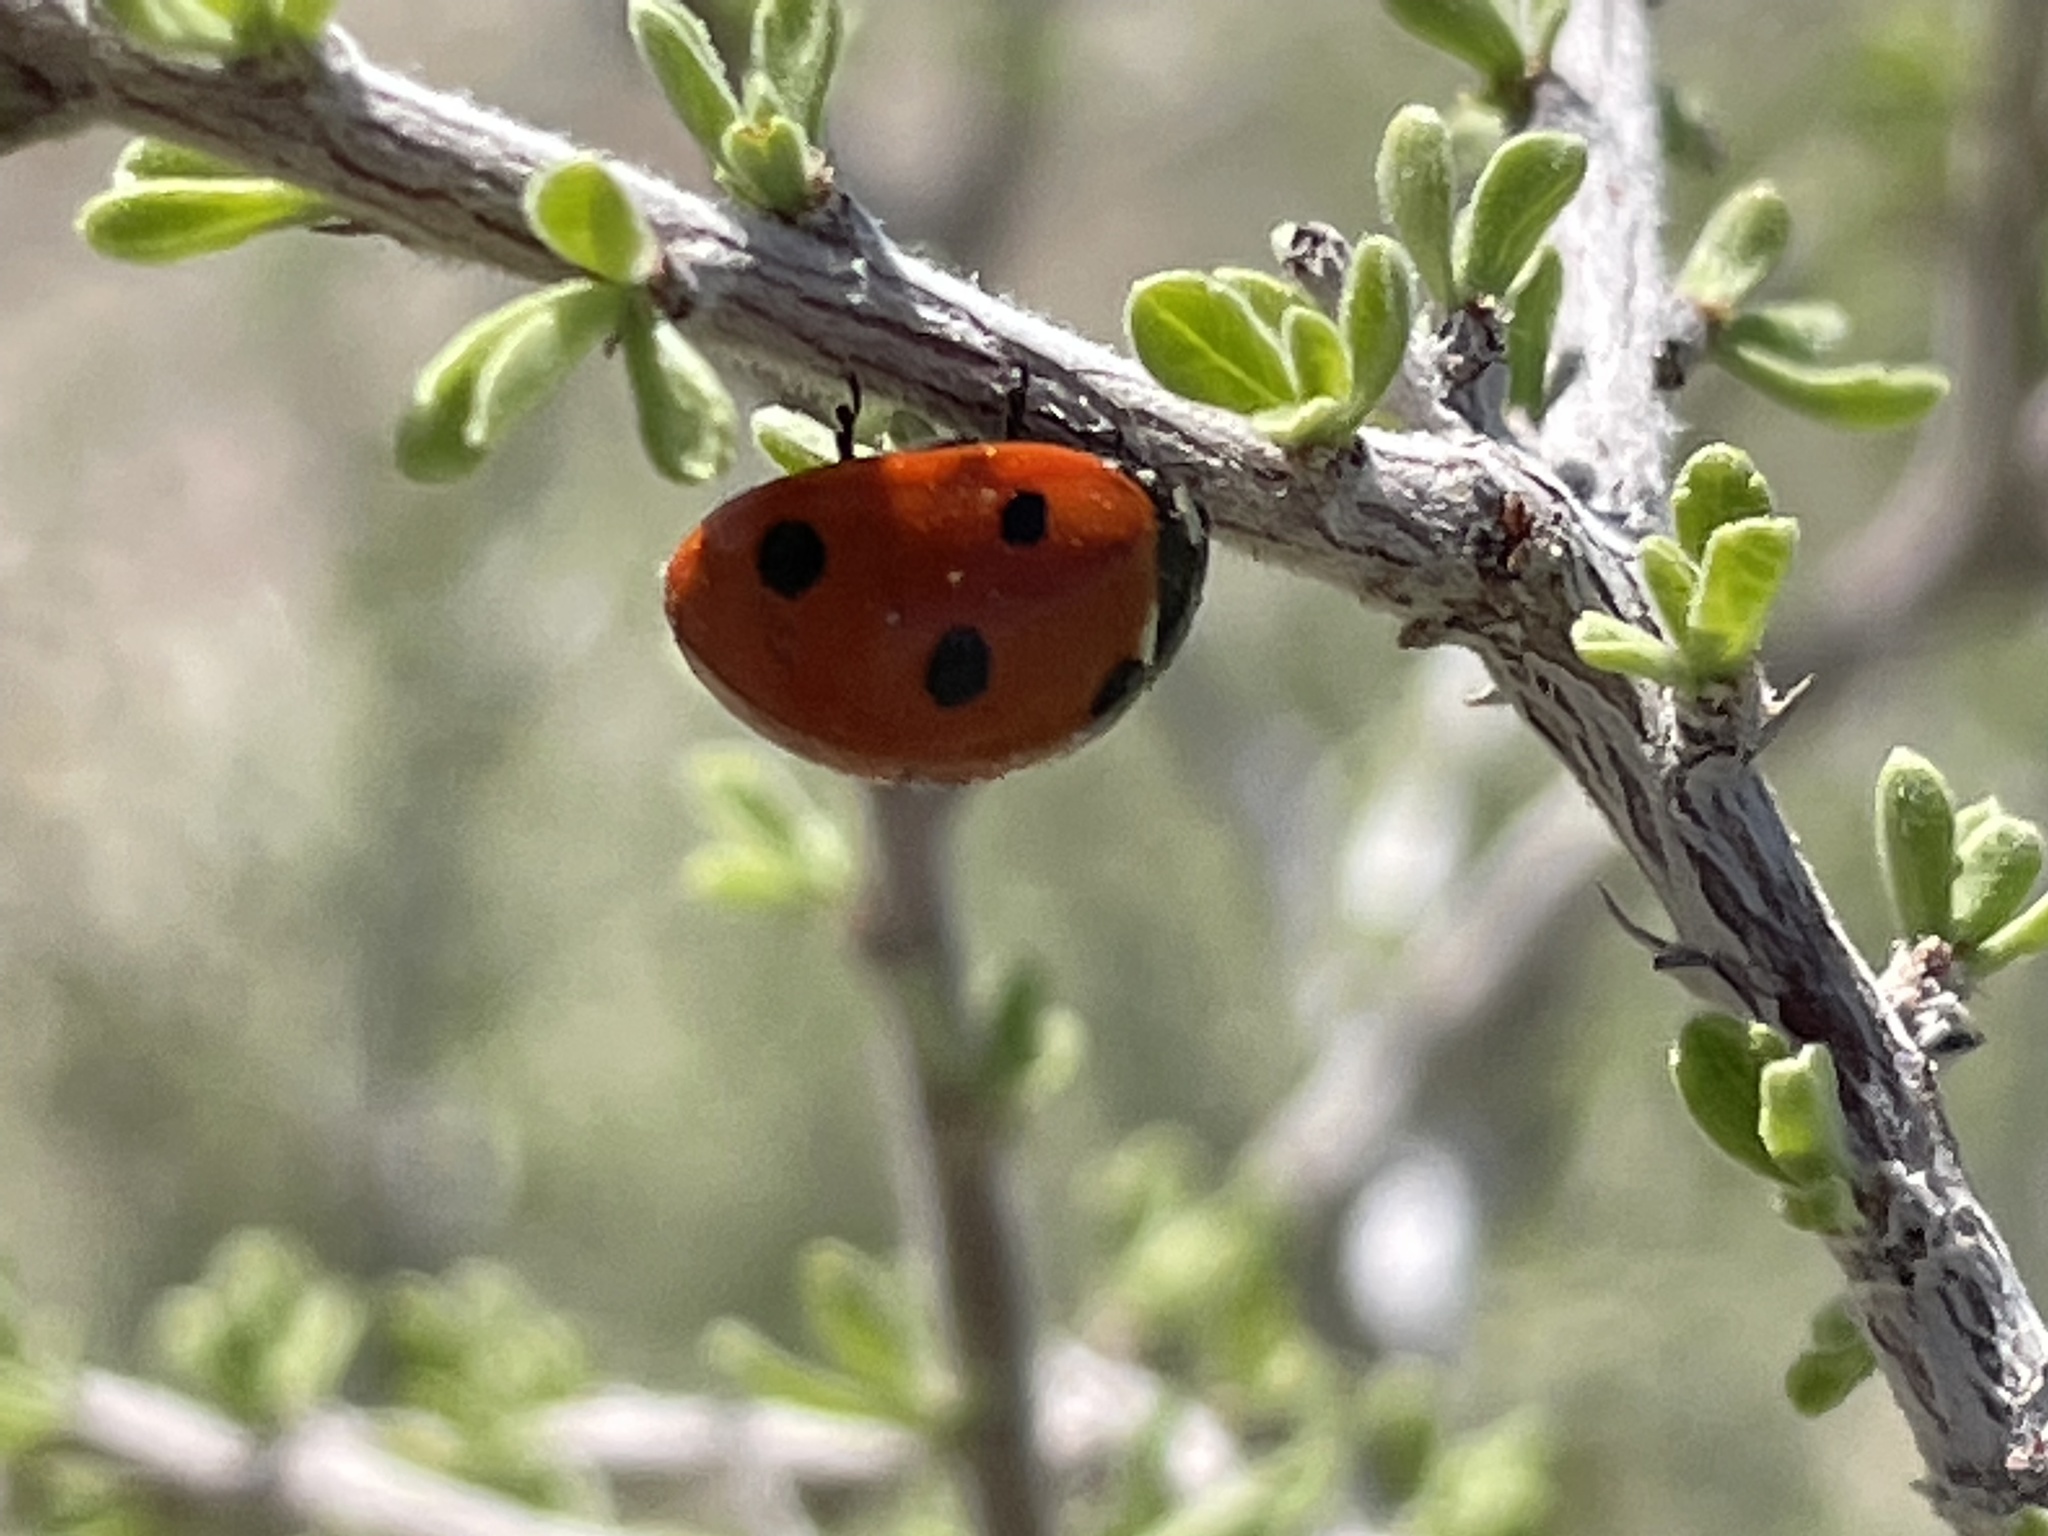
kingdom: Animalia
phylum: Arthropoda
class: Insecta
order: Coleoptera
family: Coccinellidae
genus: Coccinella
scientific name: Coccinella septempunctata
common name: Sevenspotted lady beetle
